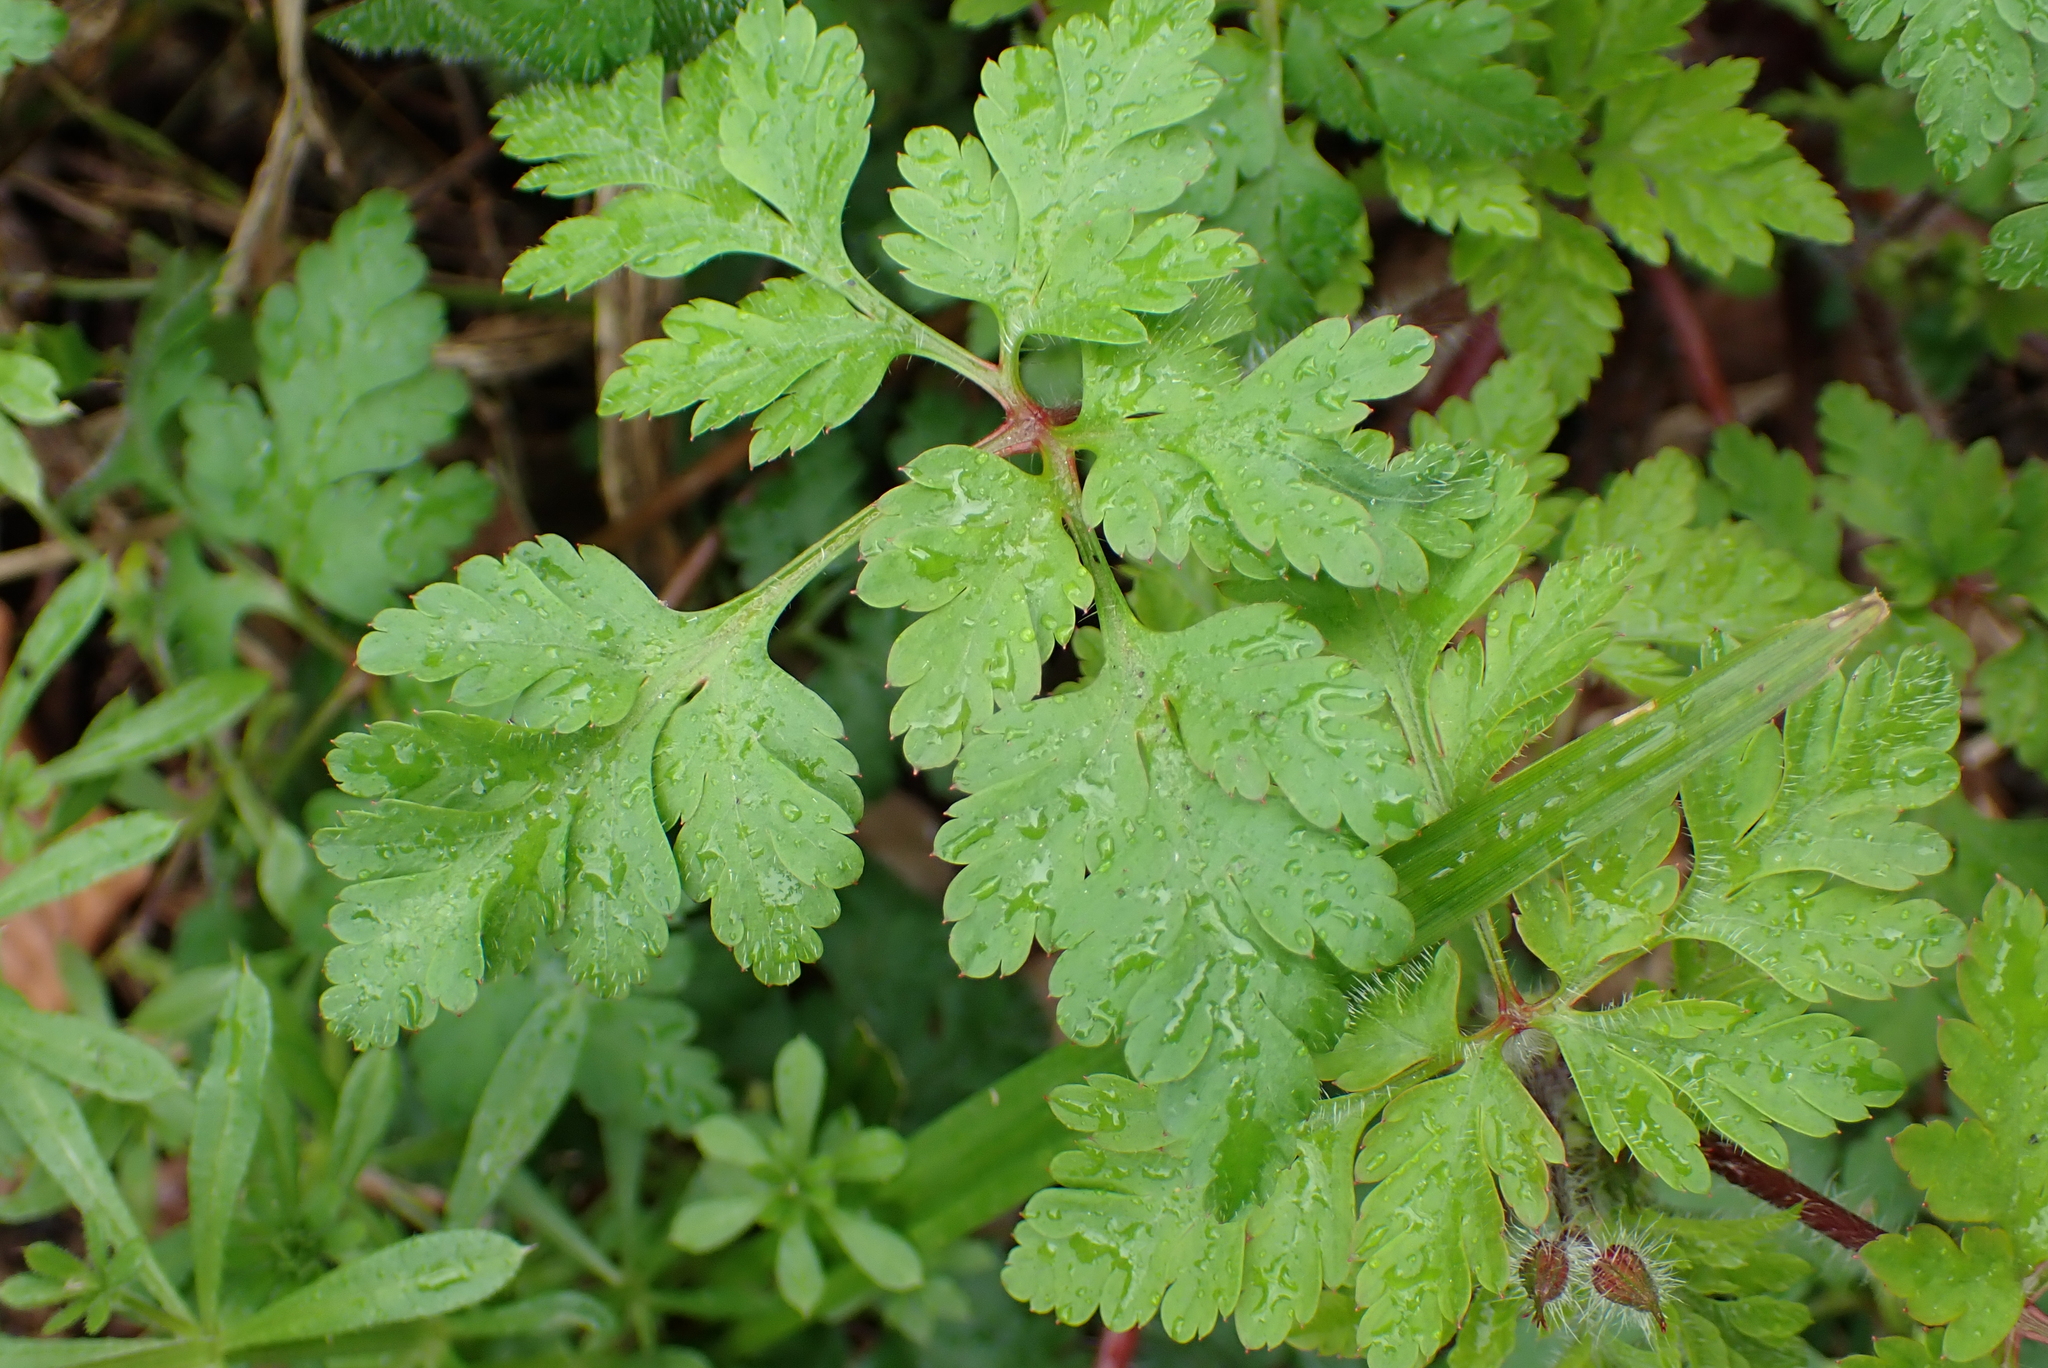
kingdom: Plantae
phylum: Tracheophyta
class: Magnoliopsida
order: Geraniales
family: Geraniaceae
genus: Geranium
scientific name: Geranium robertianum
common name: Herb-robert
